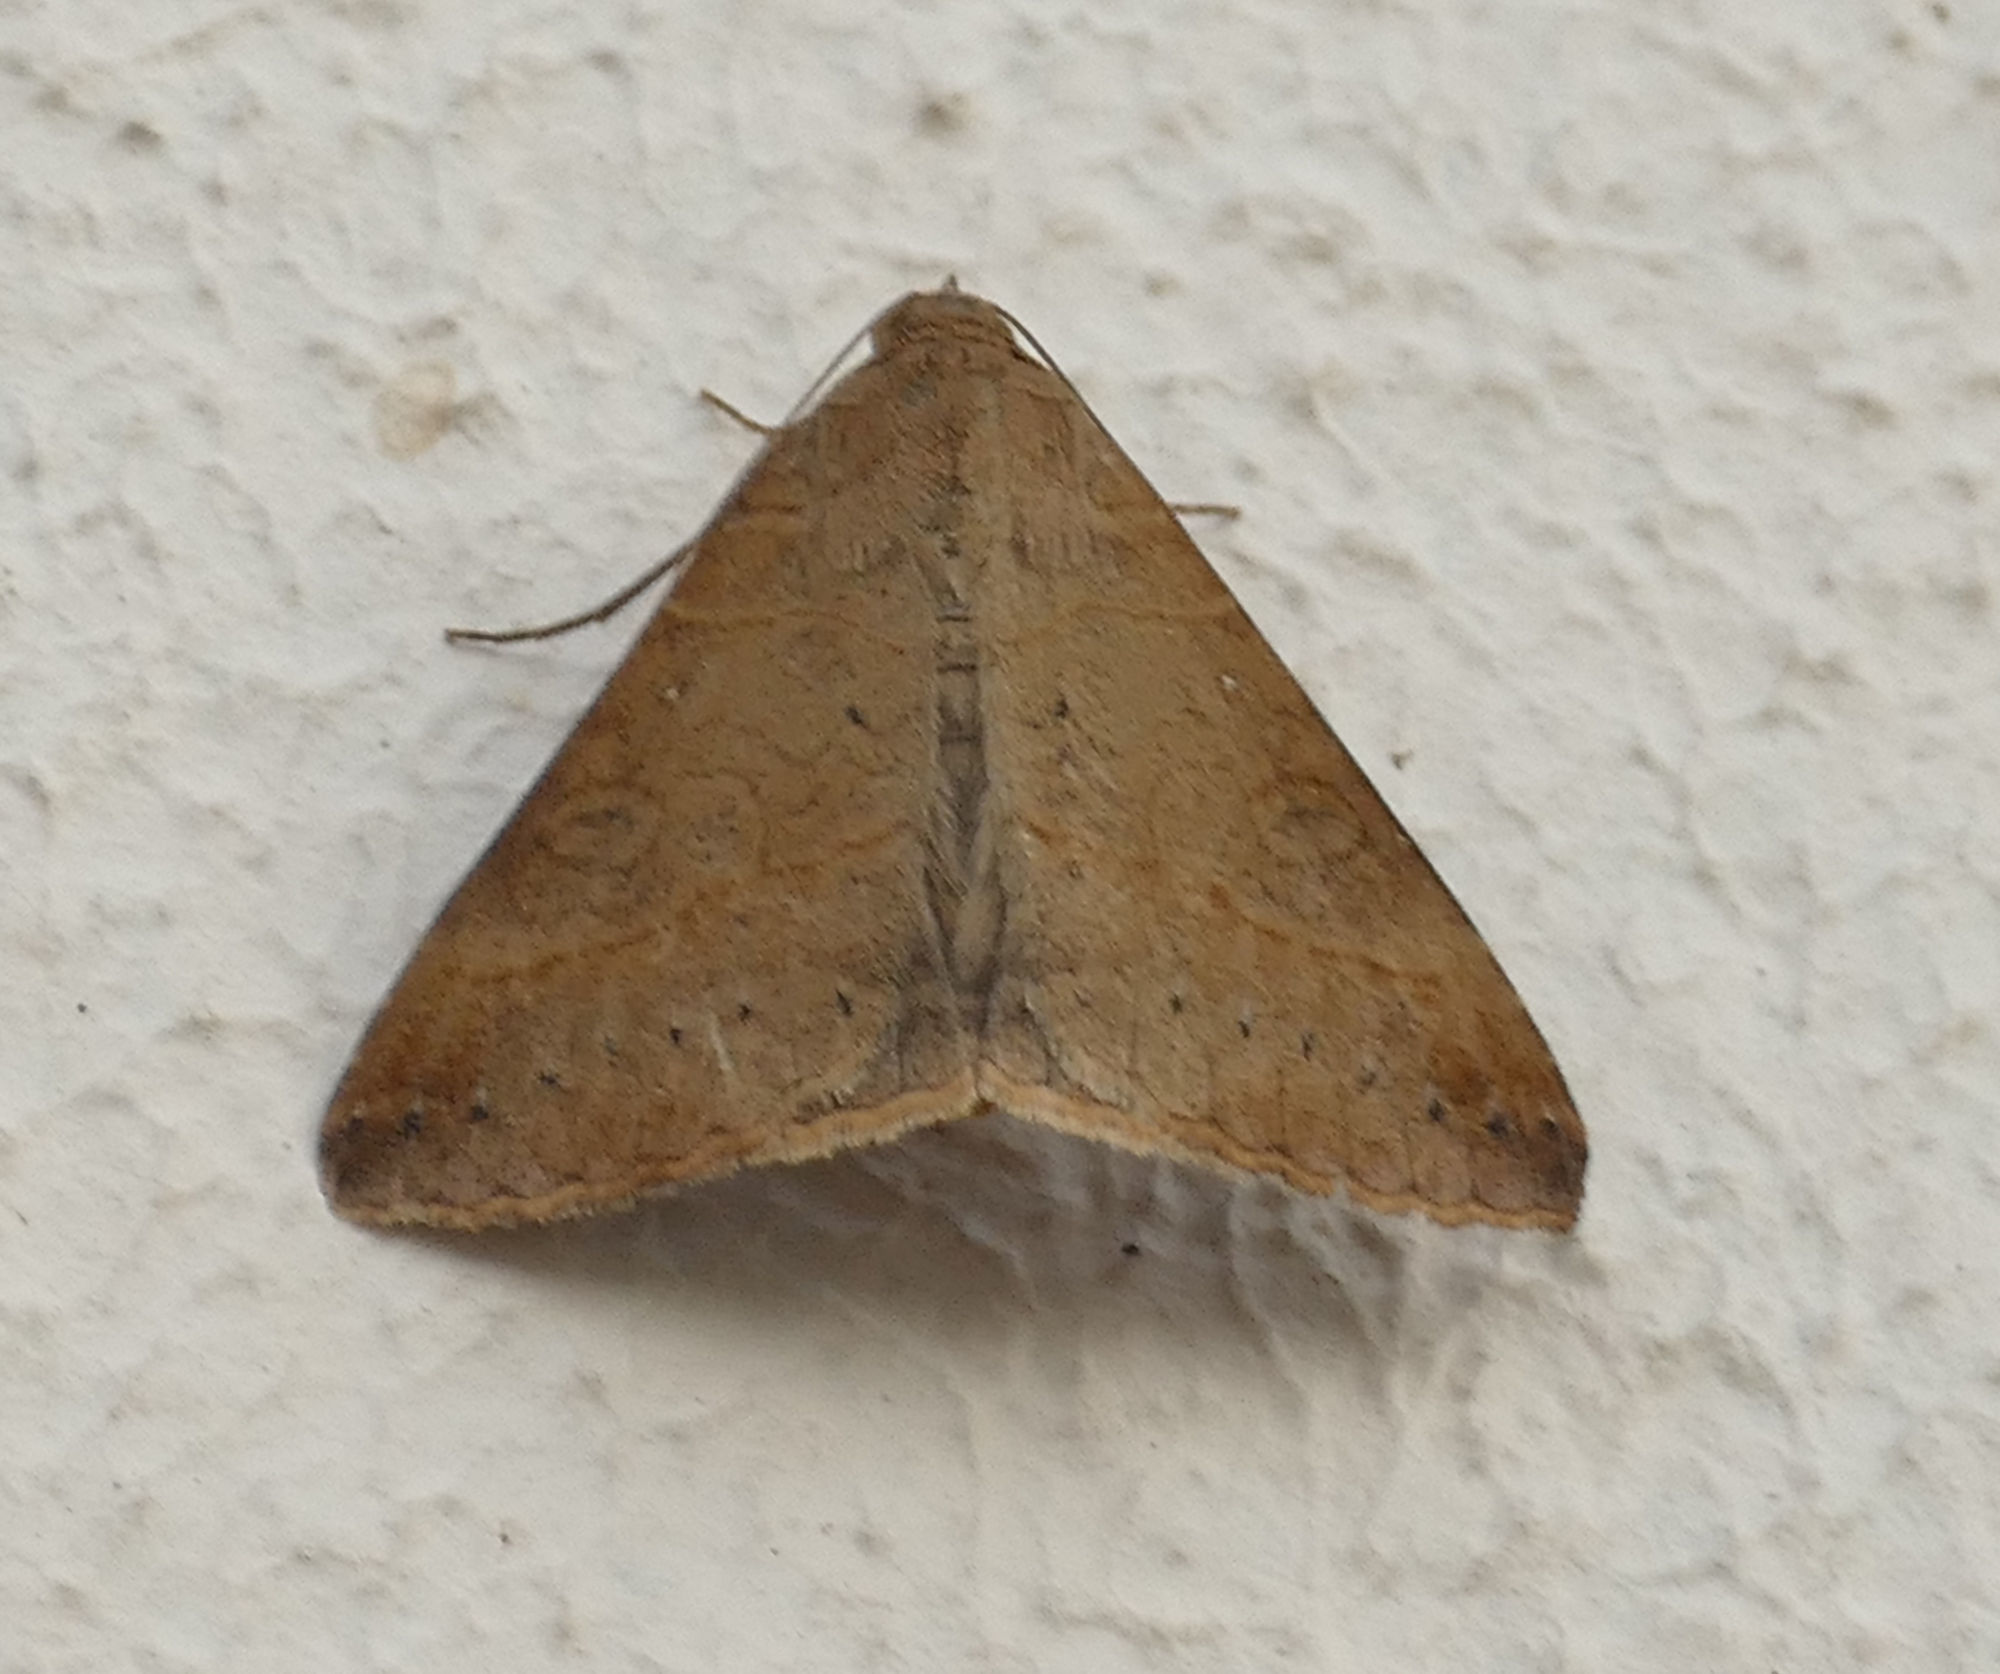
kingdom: Animalia
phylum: Arthropoda
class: Insecta
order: Lepidoptera
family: Erebidae
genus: Mocis
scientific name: Mocis latipes
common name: Striped grass looper
